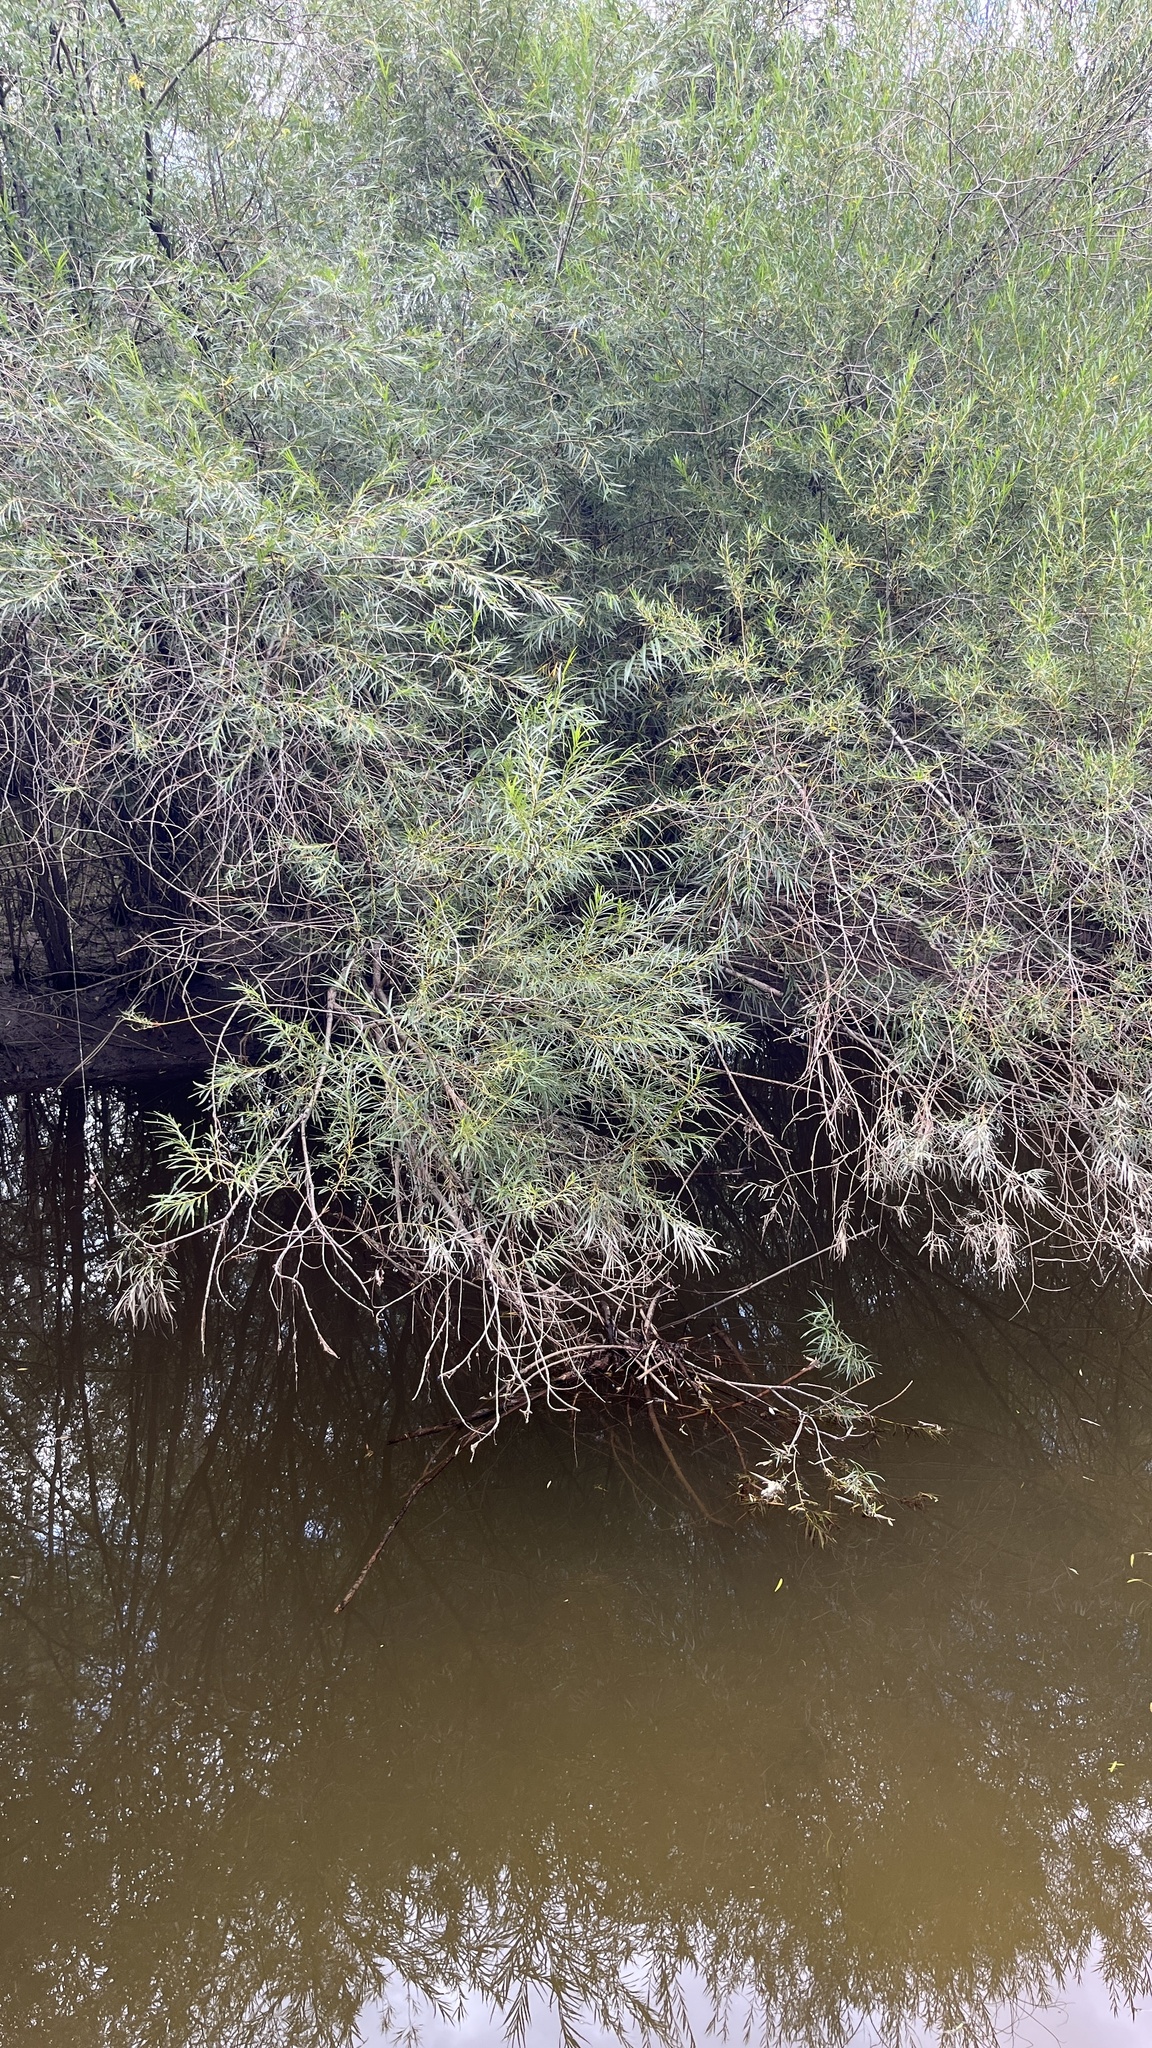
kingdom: Plantae
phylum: Tracheophyta
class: Magnoliopsida
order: Malpighiales
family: Salicaceae
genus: Salix
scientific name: Salix viminalis
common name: Osier
